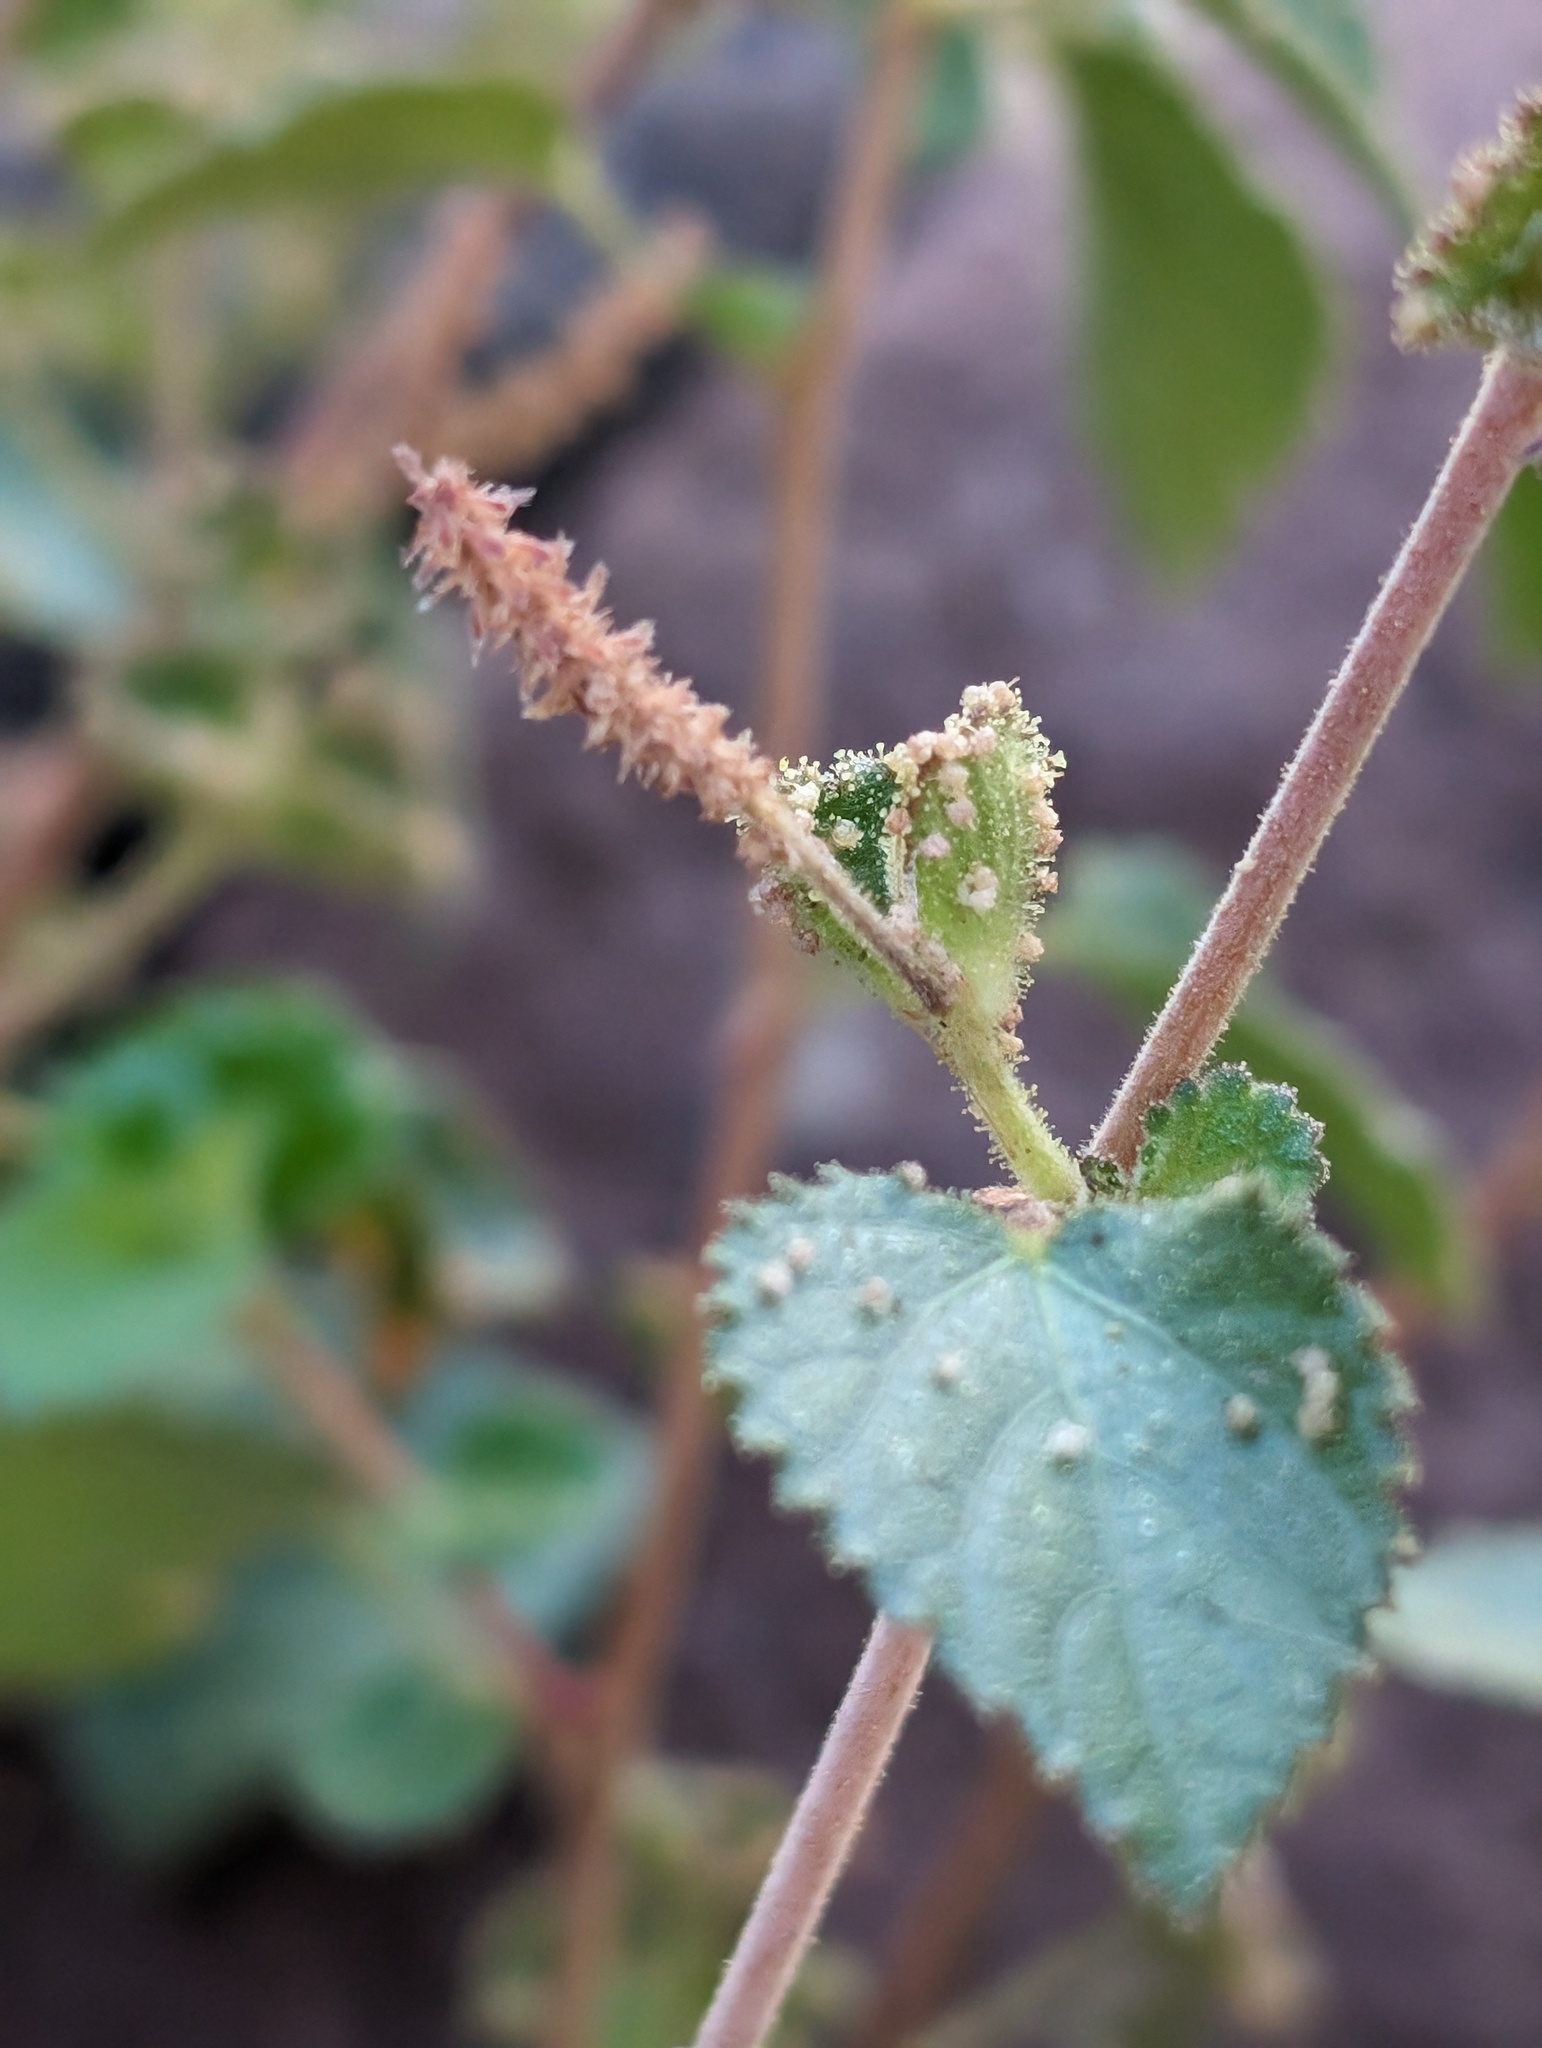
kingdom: Plantae
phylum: Tracheophyta
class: Magnoliopsida
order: Malpighiales
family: Euphorbiaceae
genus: Acalypha
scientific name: Acalypha californica
